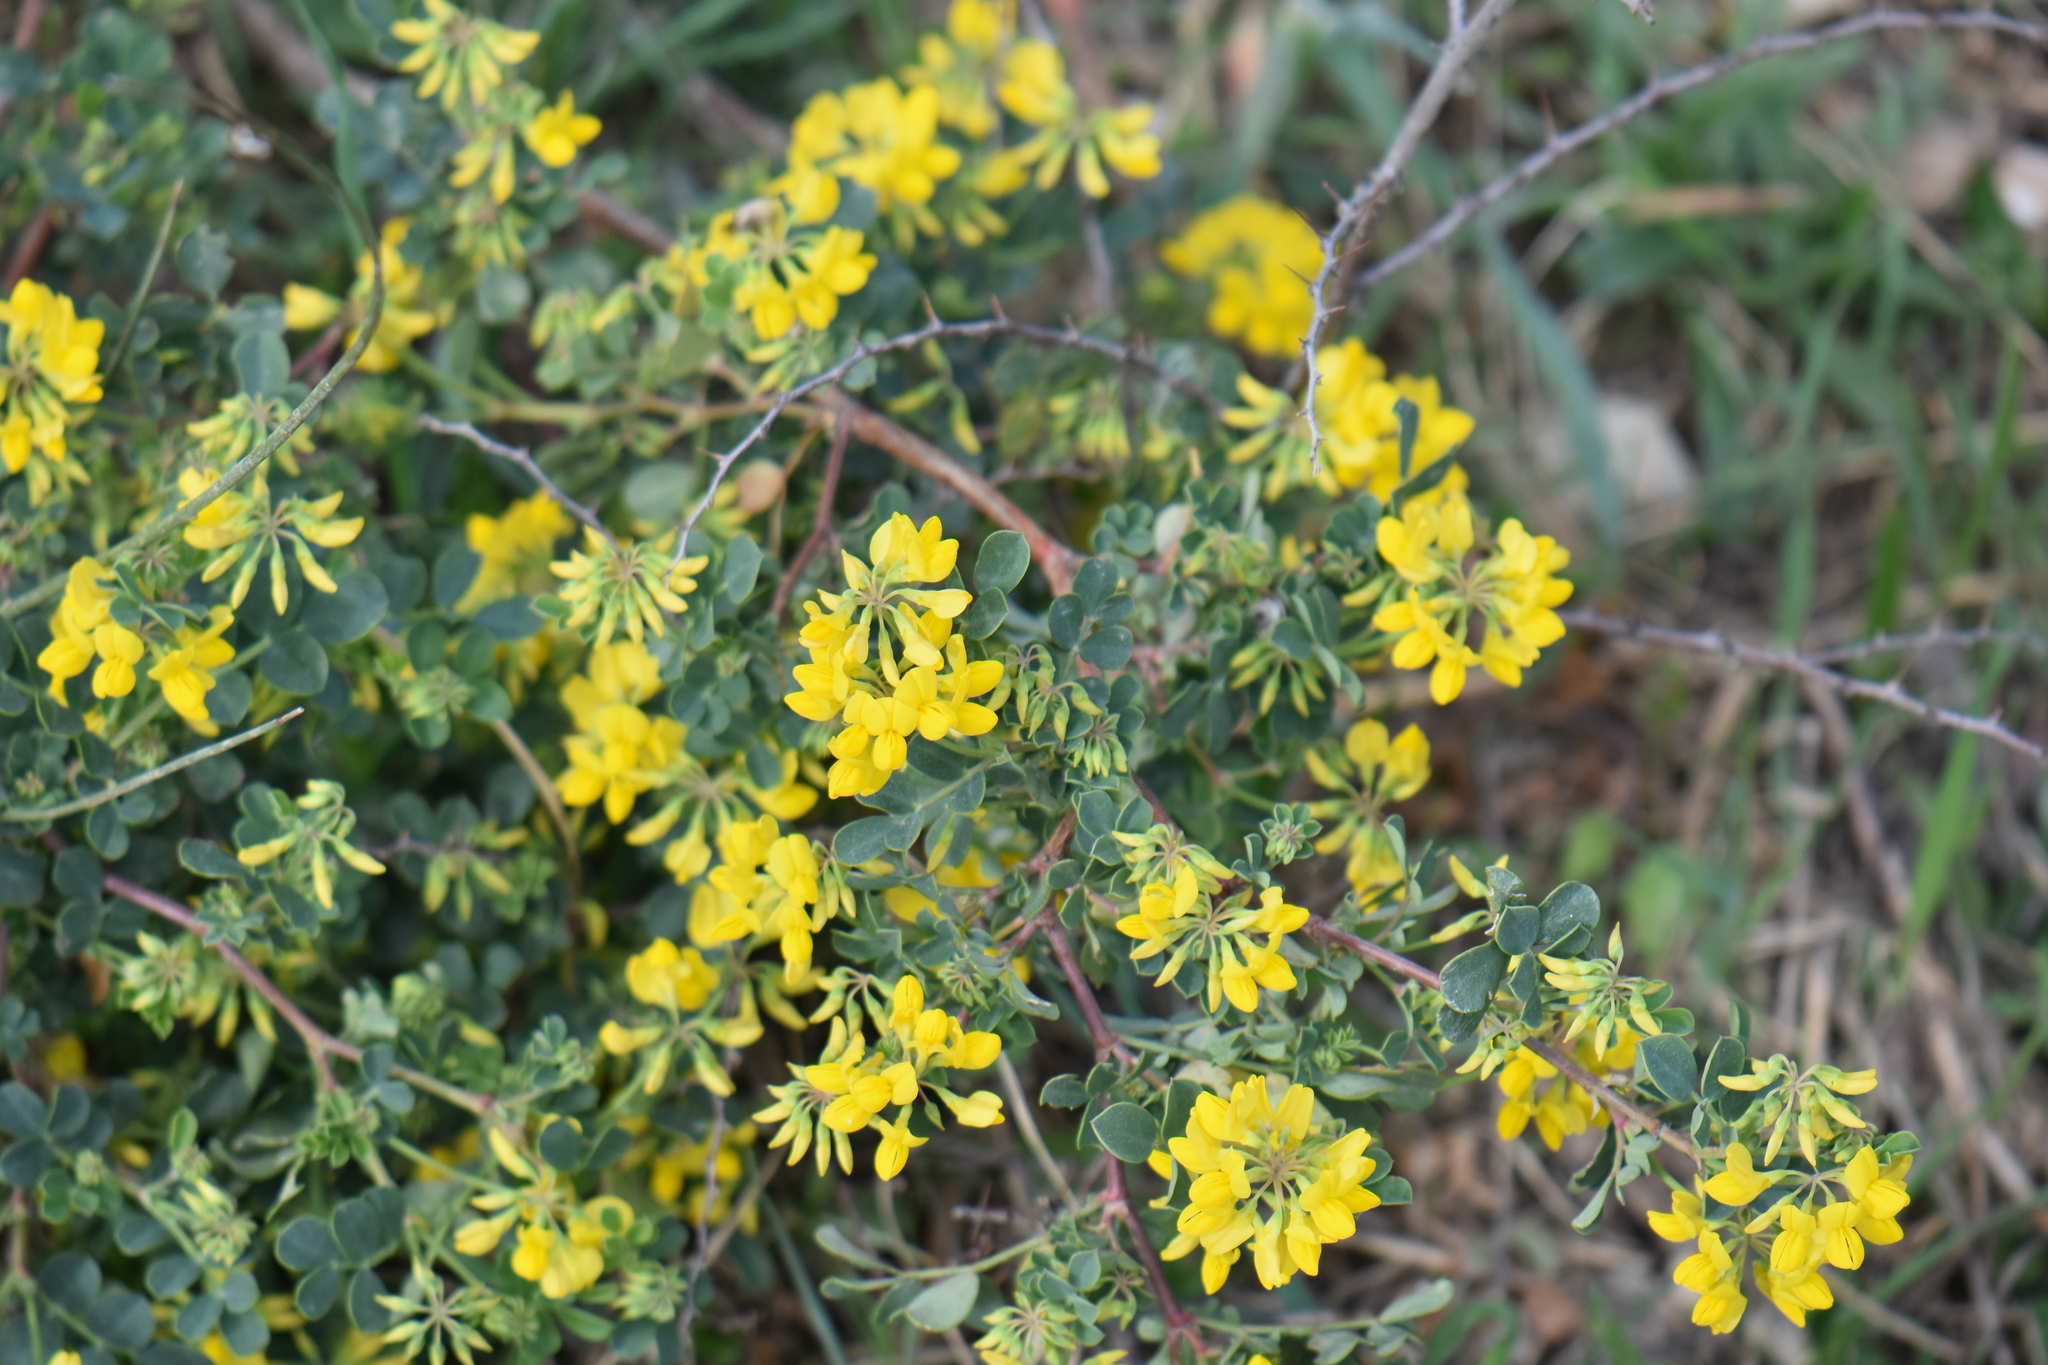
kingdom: Plantae
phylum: Tracheophyta
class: Magnoliopsida
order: Fabales
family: Fabaceae
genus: Coronilla
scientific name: Coronilla valentina
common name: Shrubby scorpion-vetch
